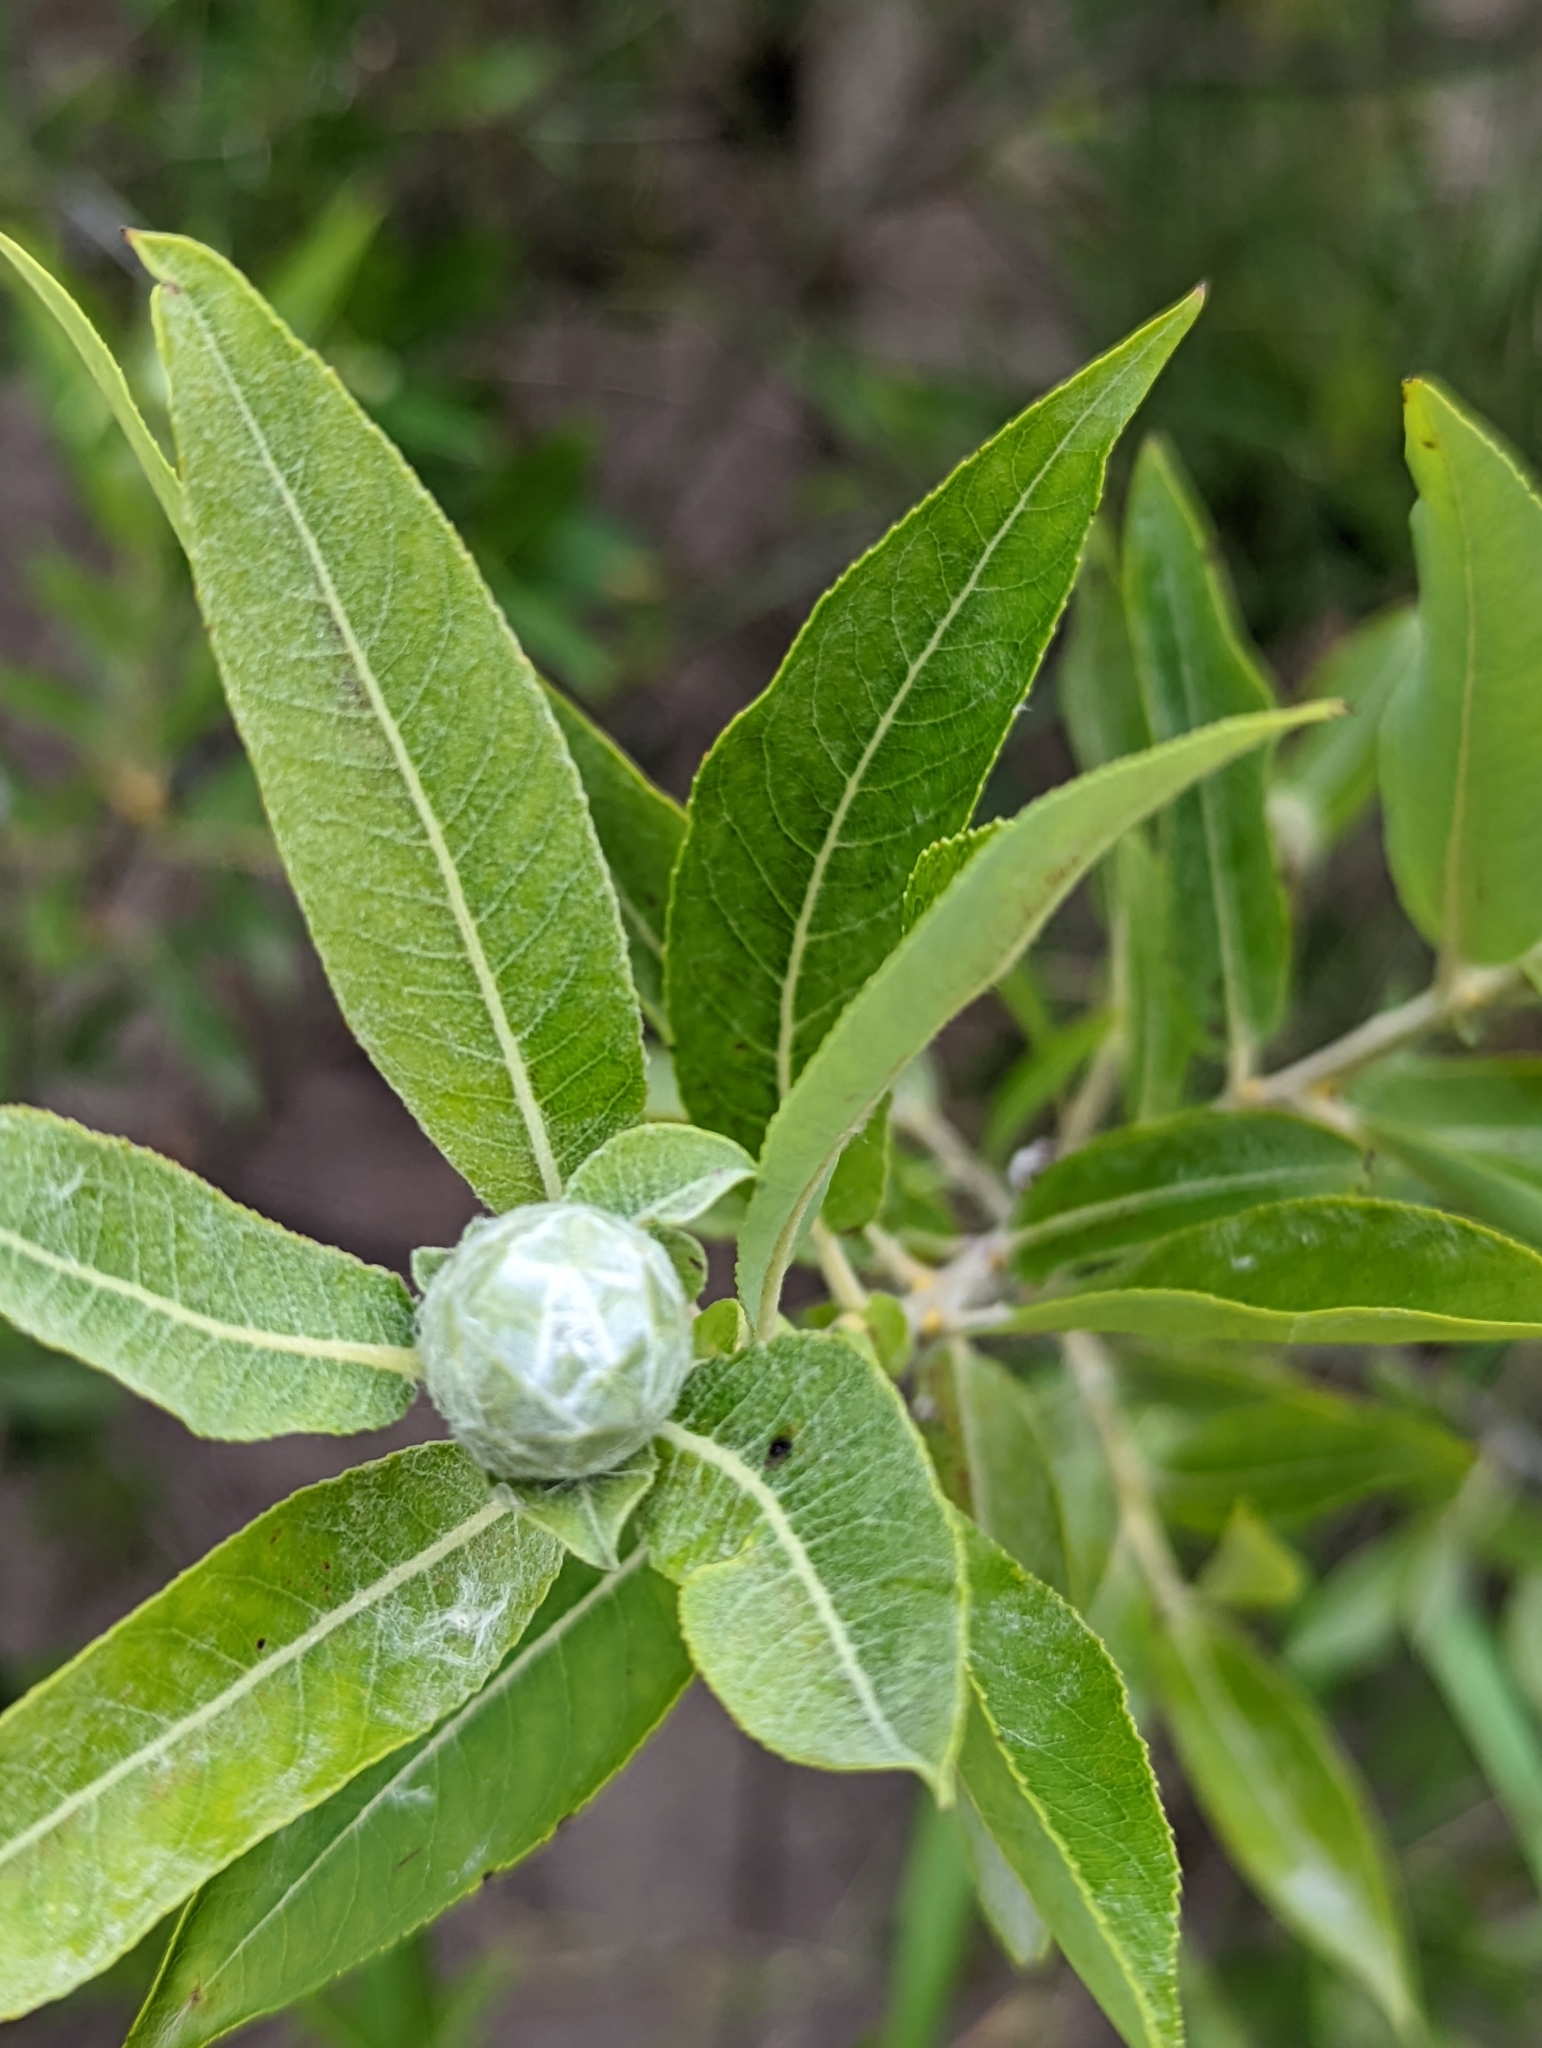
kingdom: Animalia
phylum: Arthropoda
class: Insecta
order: Diptera
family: Cecidomyiidae
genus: Rabdophaga
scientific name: Rabdophaga strobiloides
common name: Willow pinecone gall midge
